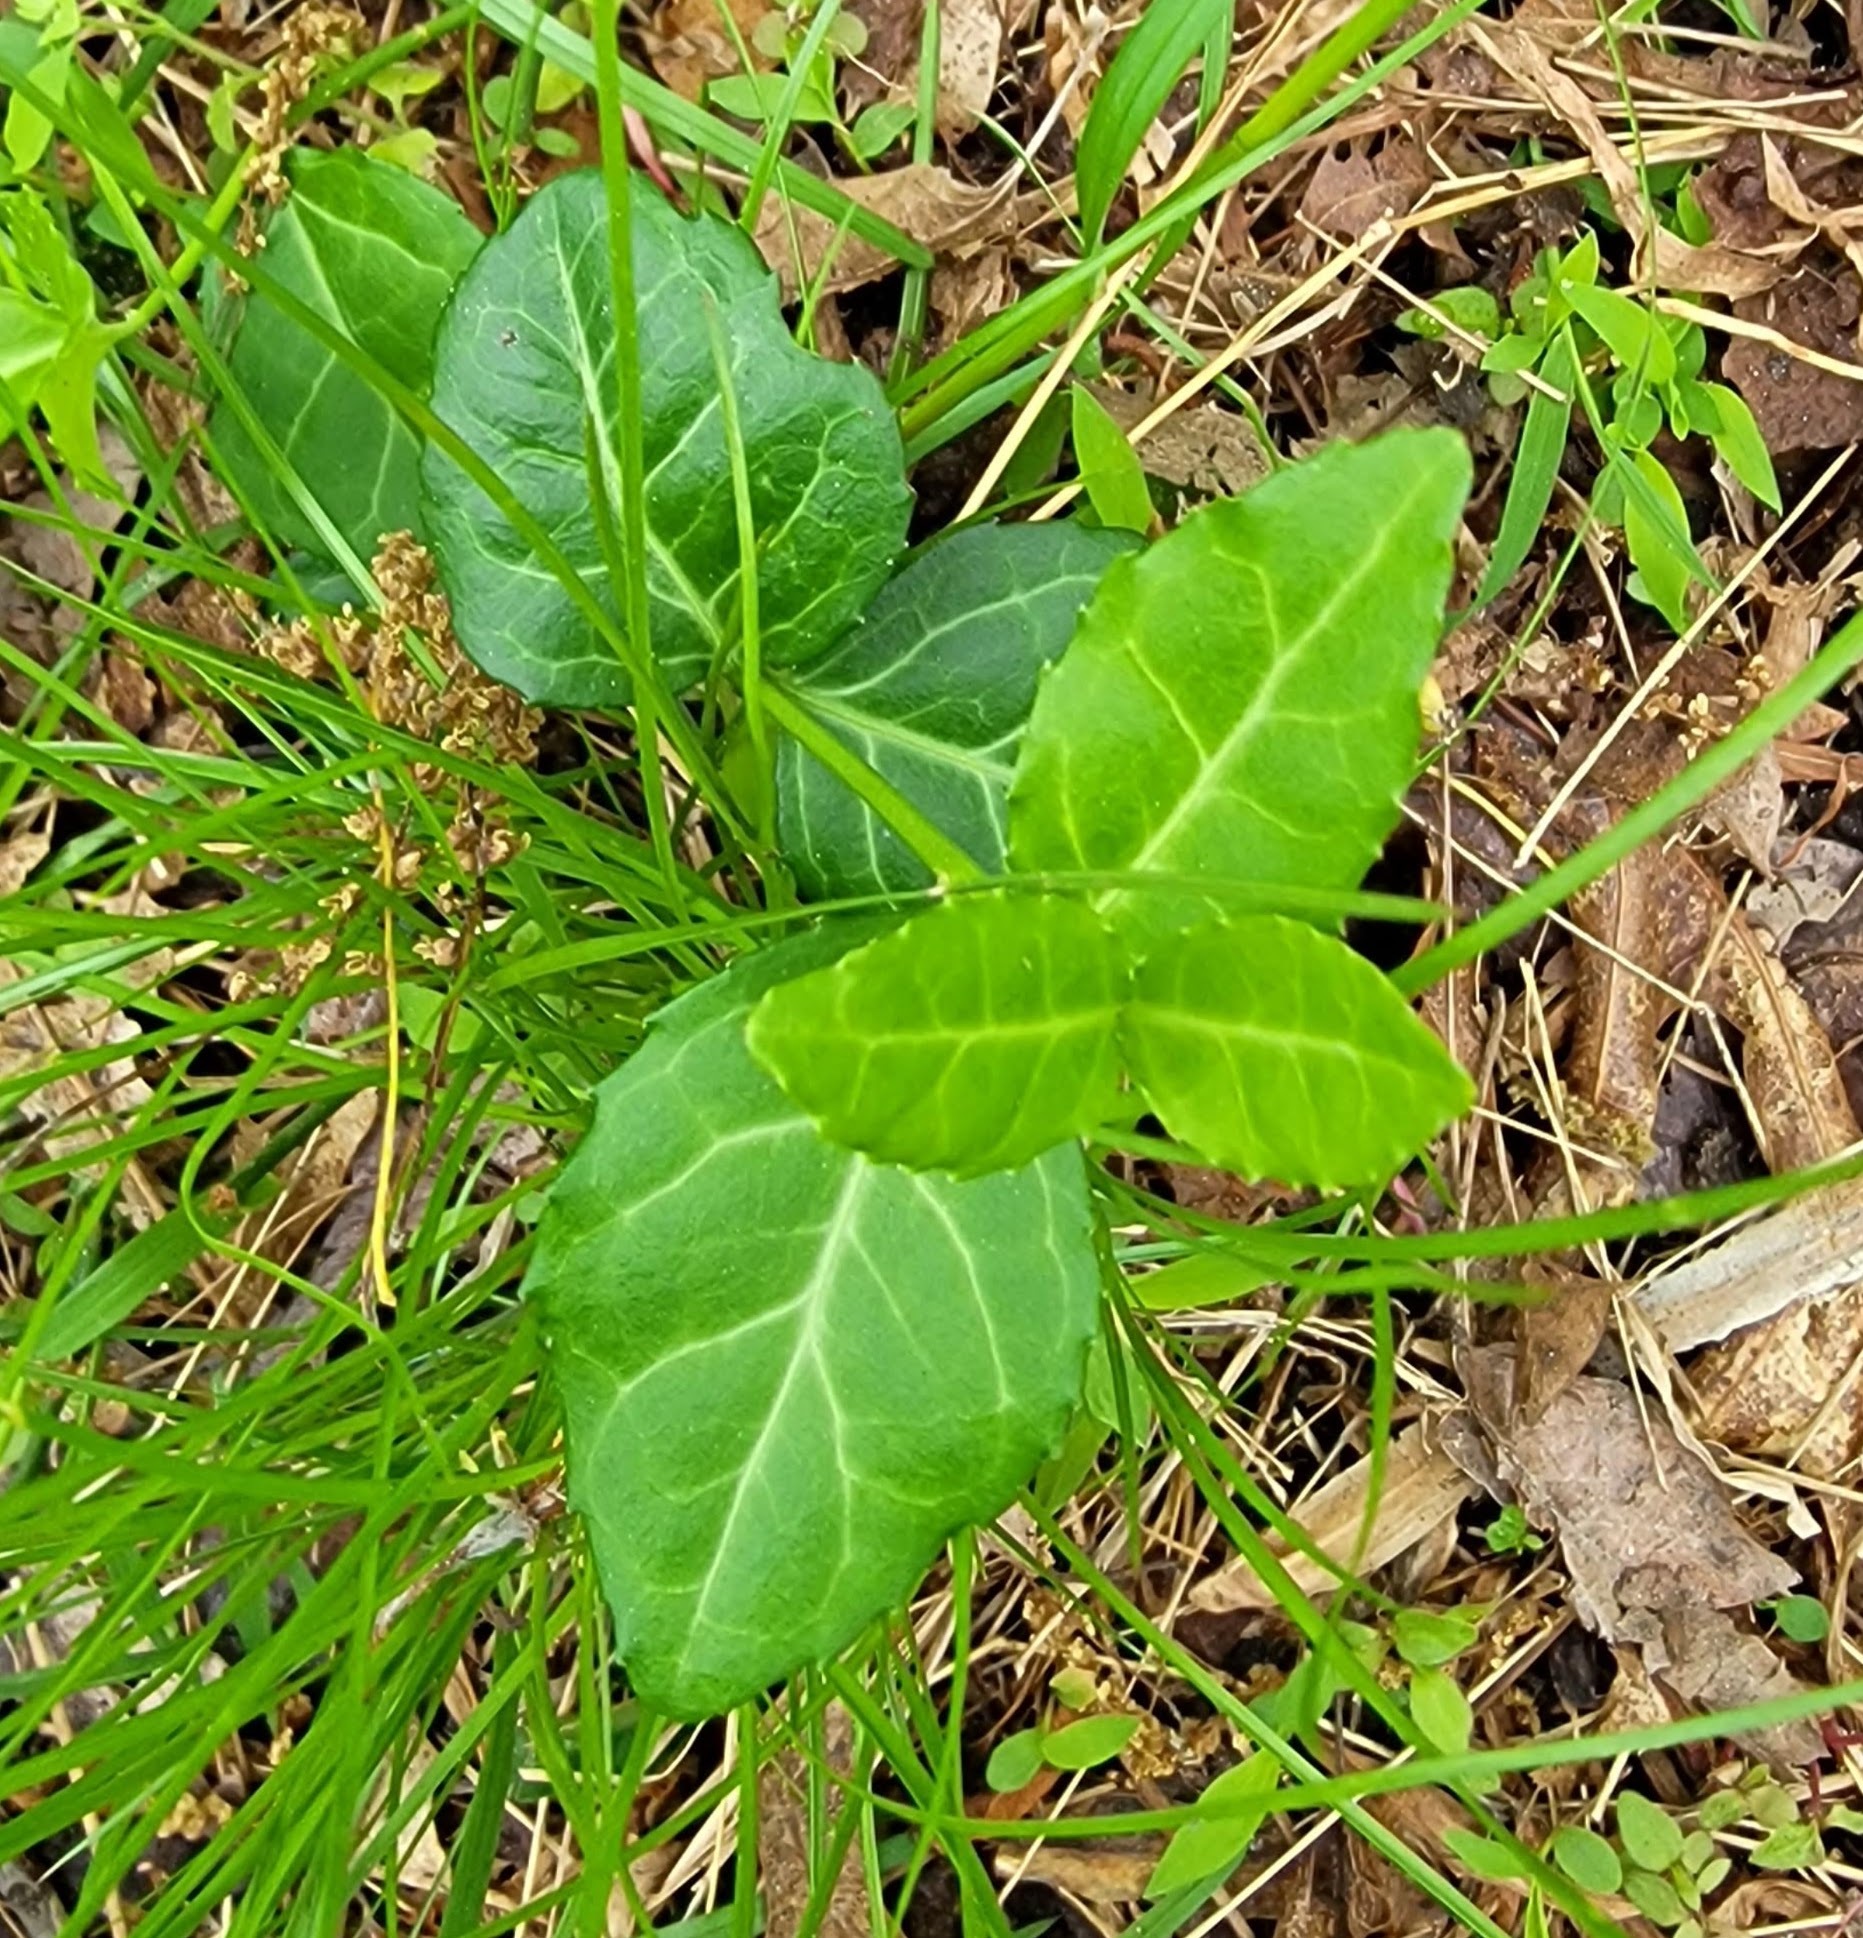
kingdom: Plantae
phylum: Tracheophyta
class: Magnoliopsida
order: Celastrales
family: Celastraceae
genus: Euonymus
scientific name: Euonymus fortunei
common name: Climbing euonymus
